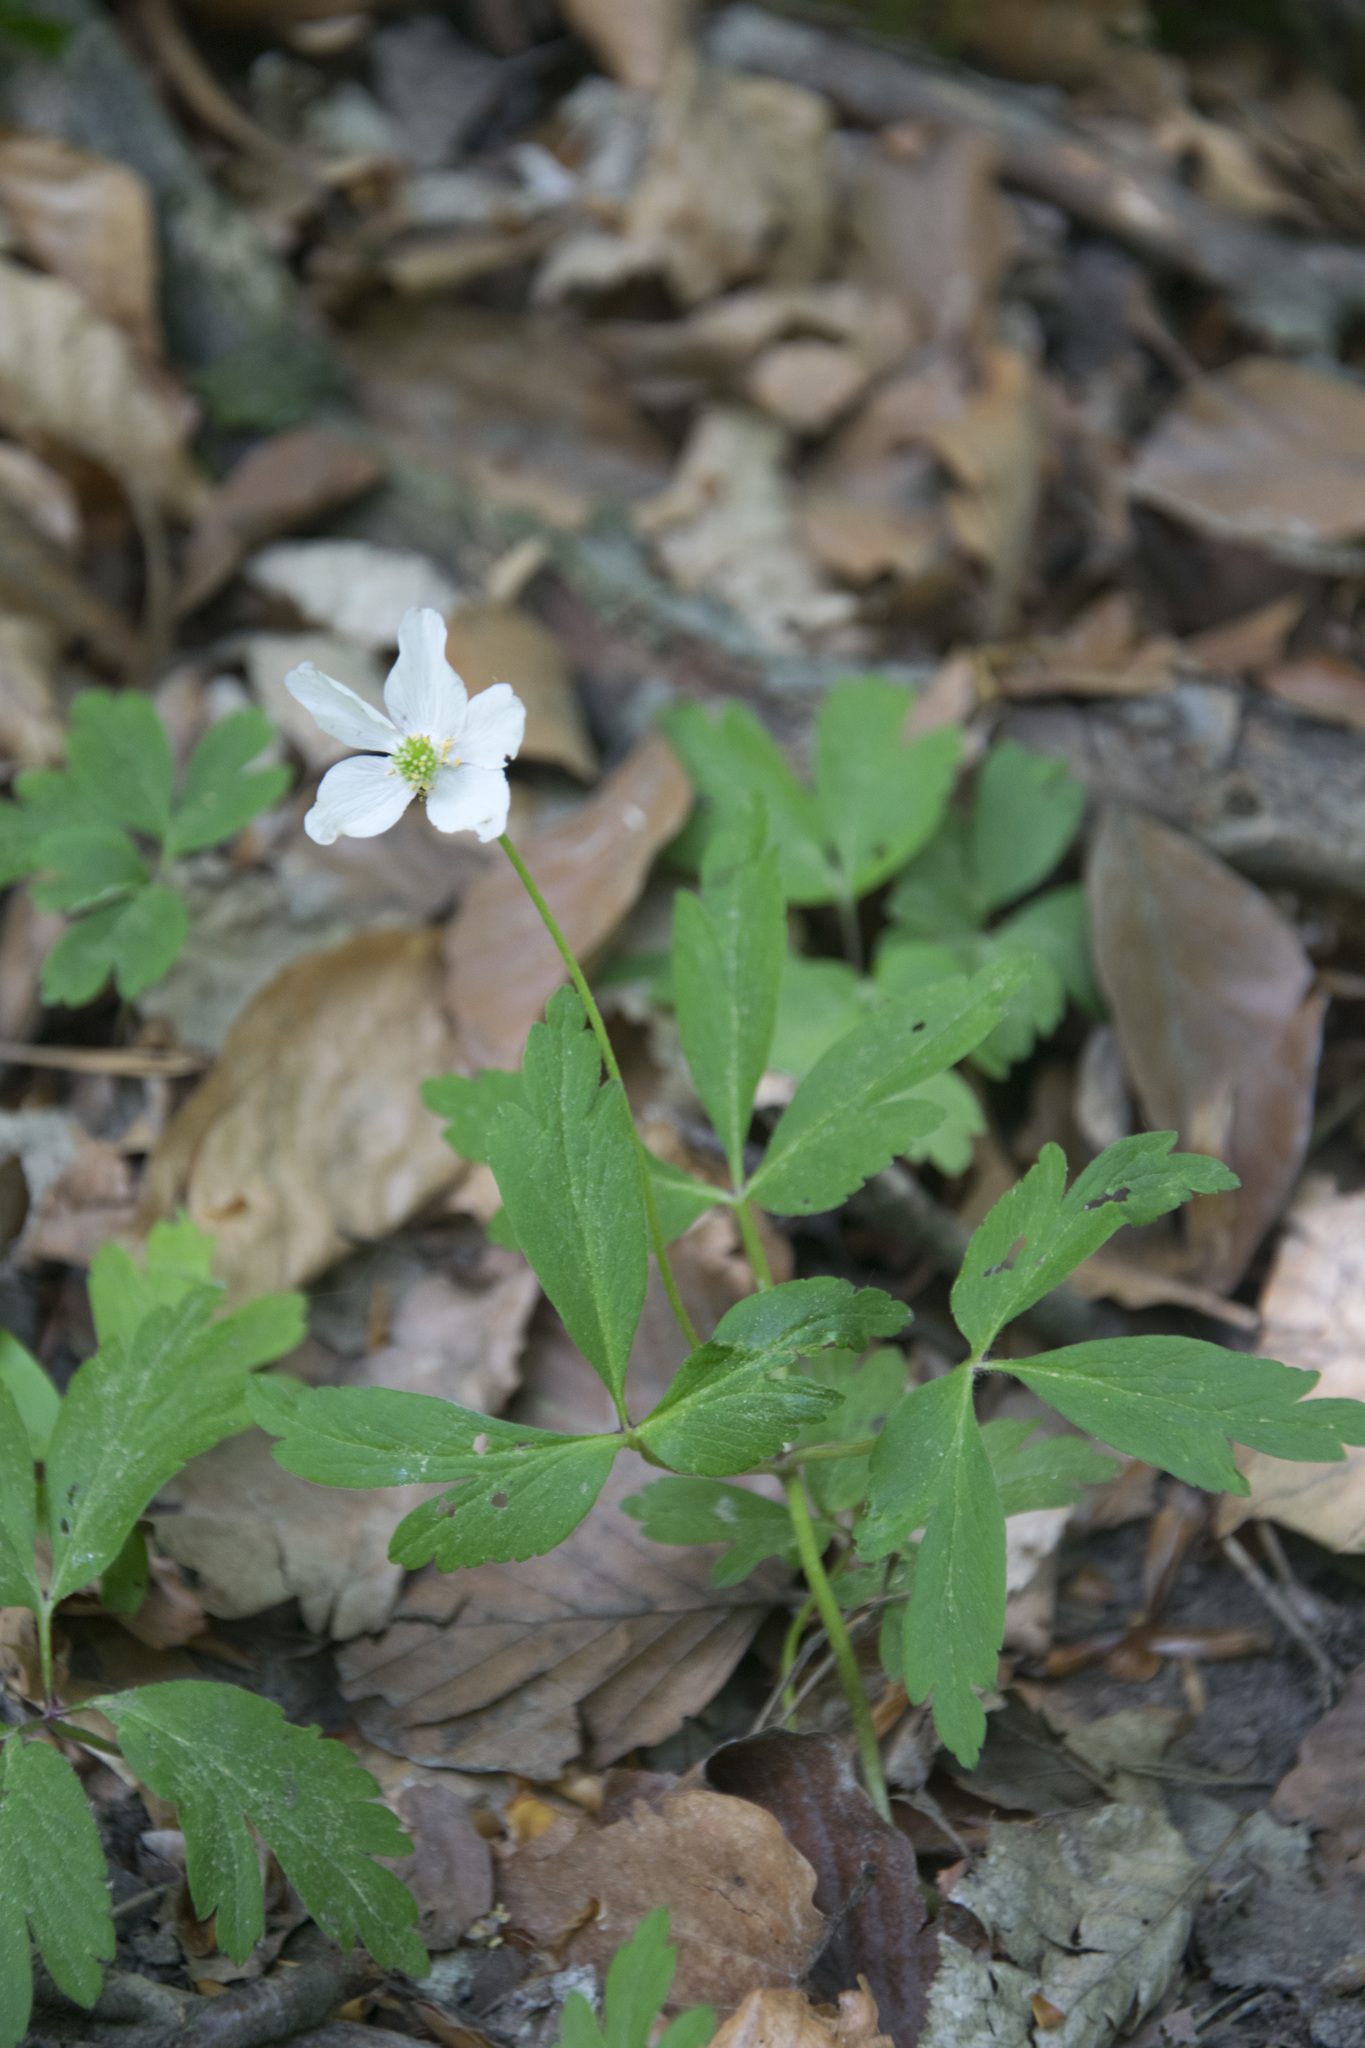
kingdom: Plantae
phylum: Tracheophyta
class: Magnoliopsida
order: Ranunculales
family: Ranunculaceae
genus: Anemone
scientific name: Anemone nemorosa
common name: Wood anemone
